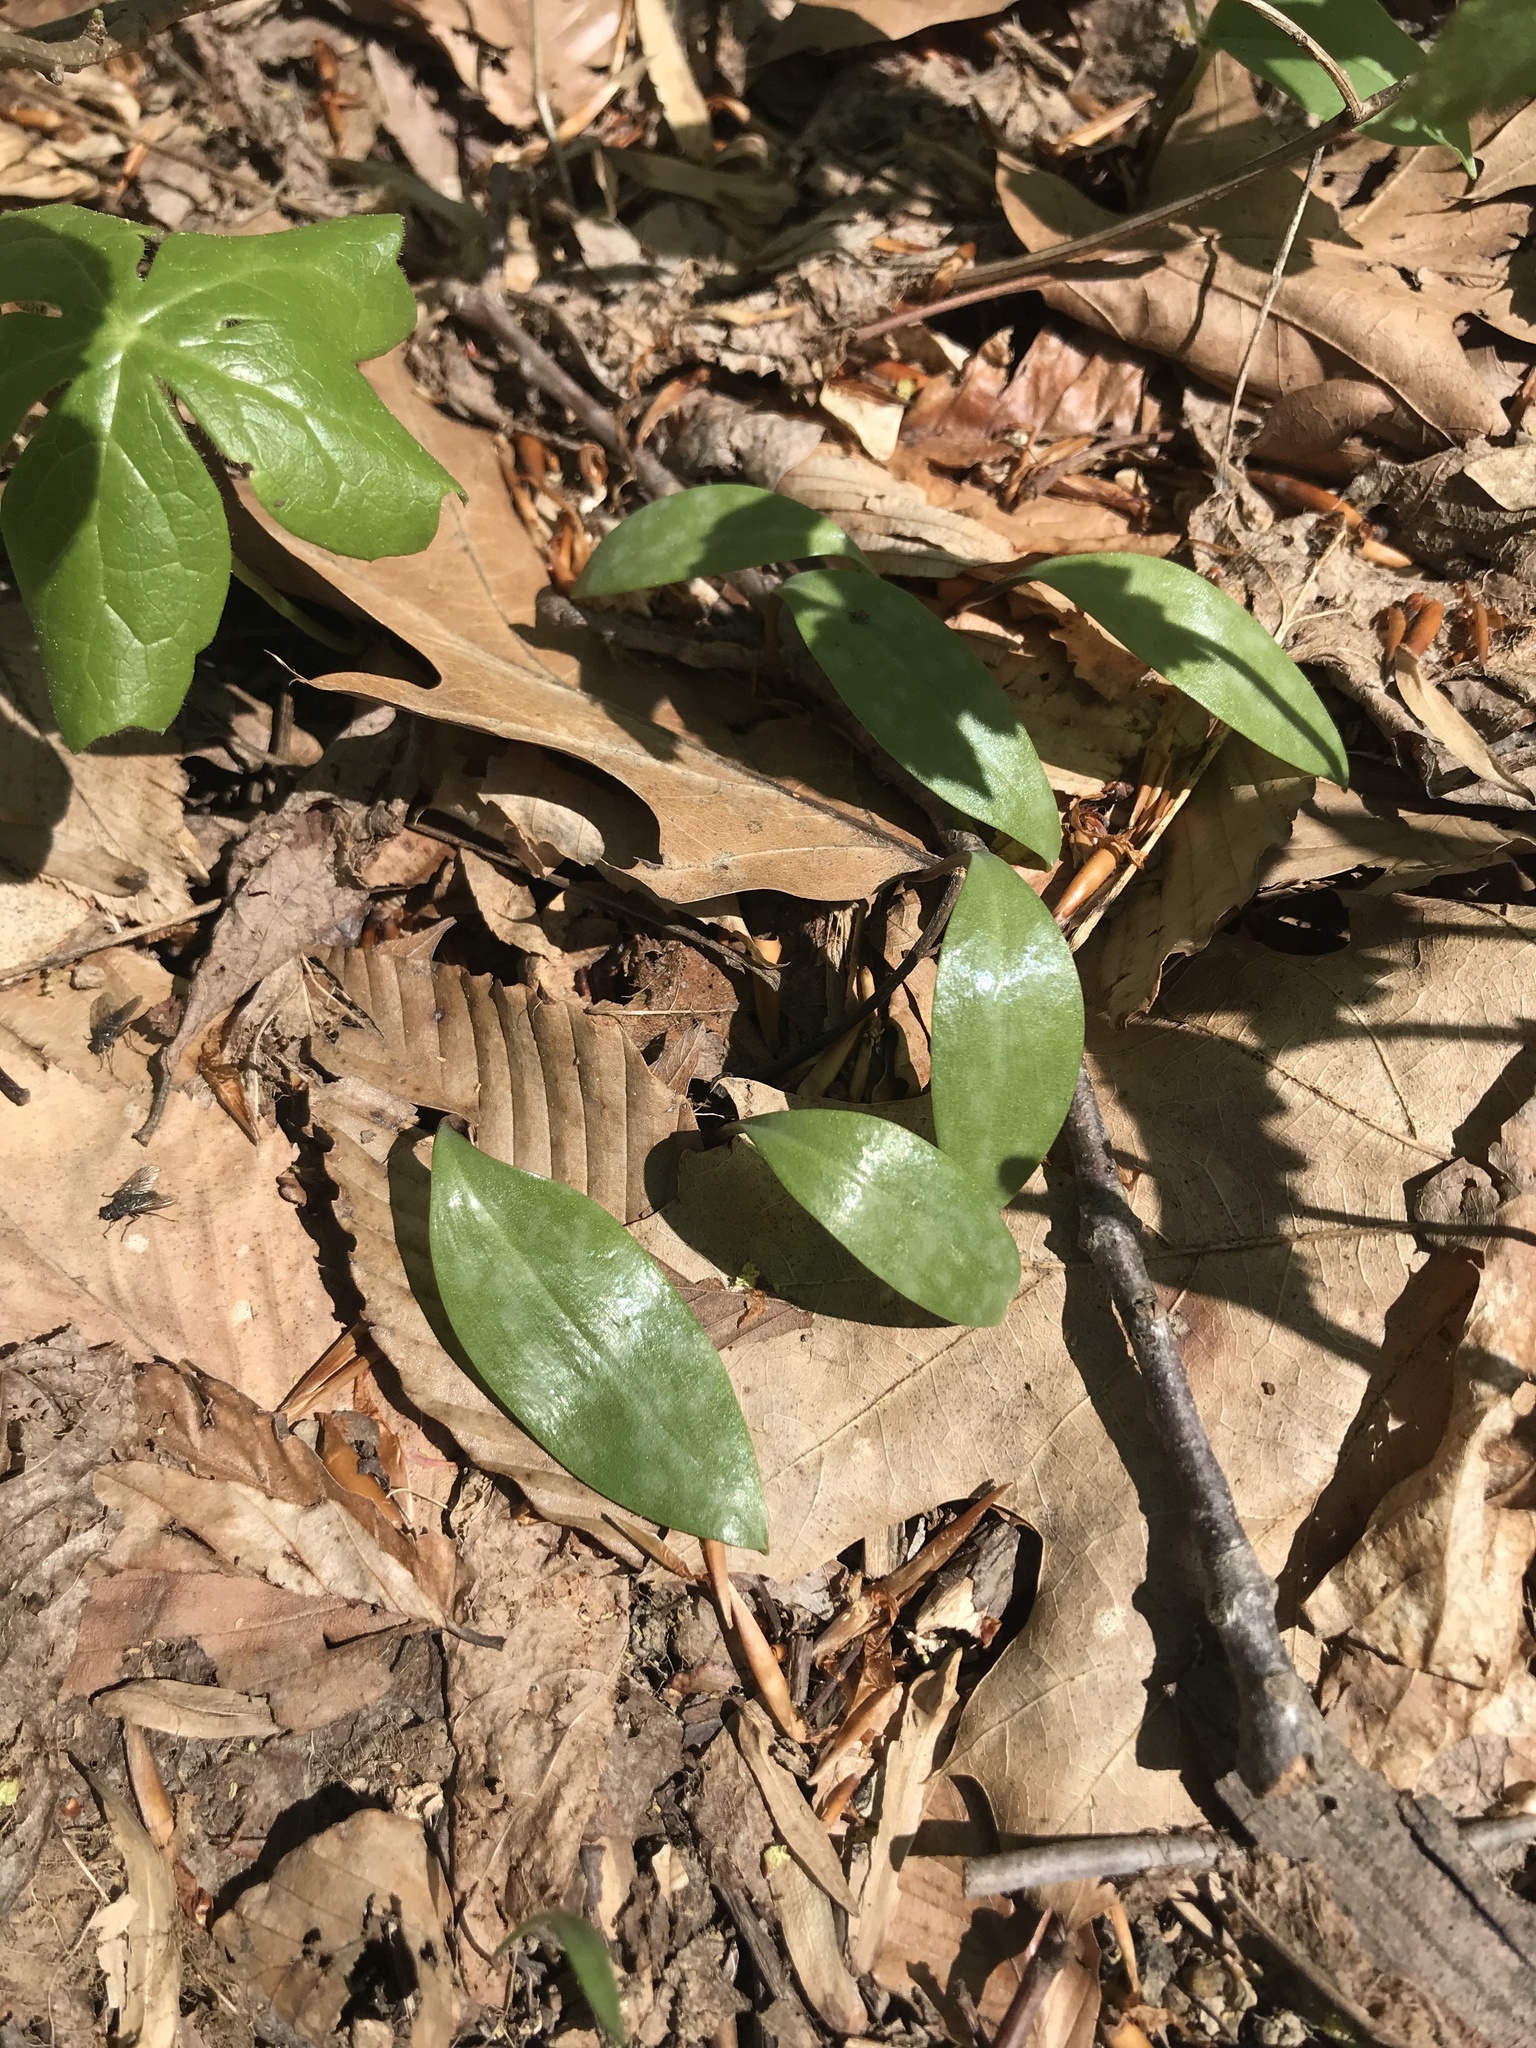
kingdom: Plantae
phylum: Tracheophyta
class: Liliopsida
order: Liliales
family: Liliaceae
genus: Erythronium
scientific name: Erythronium americanum
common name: Yellow adder's-tongue
